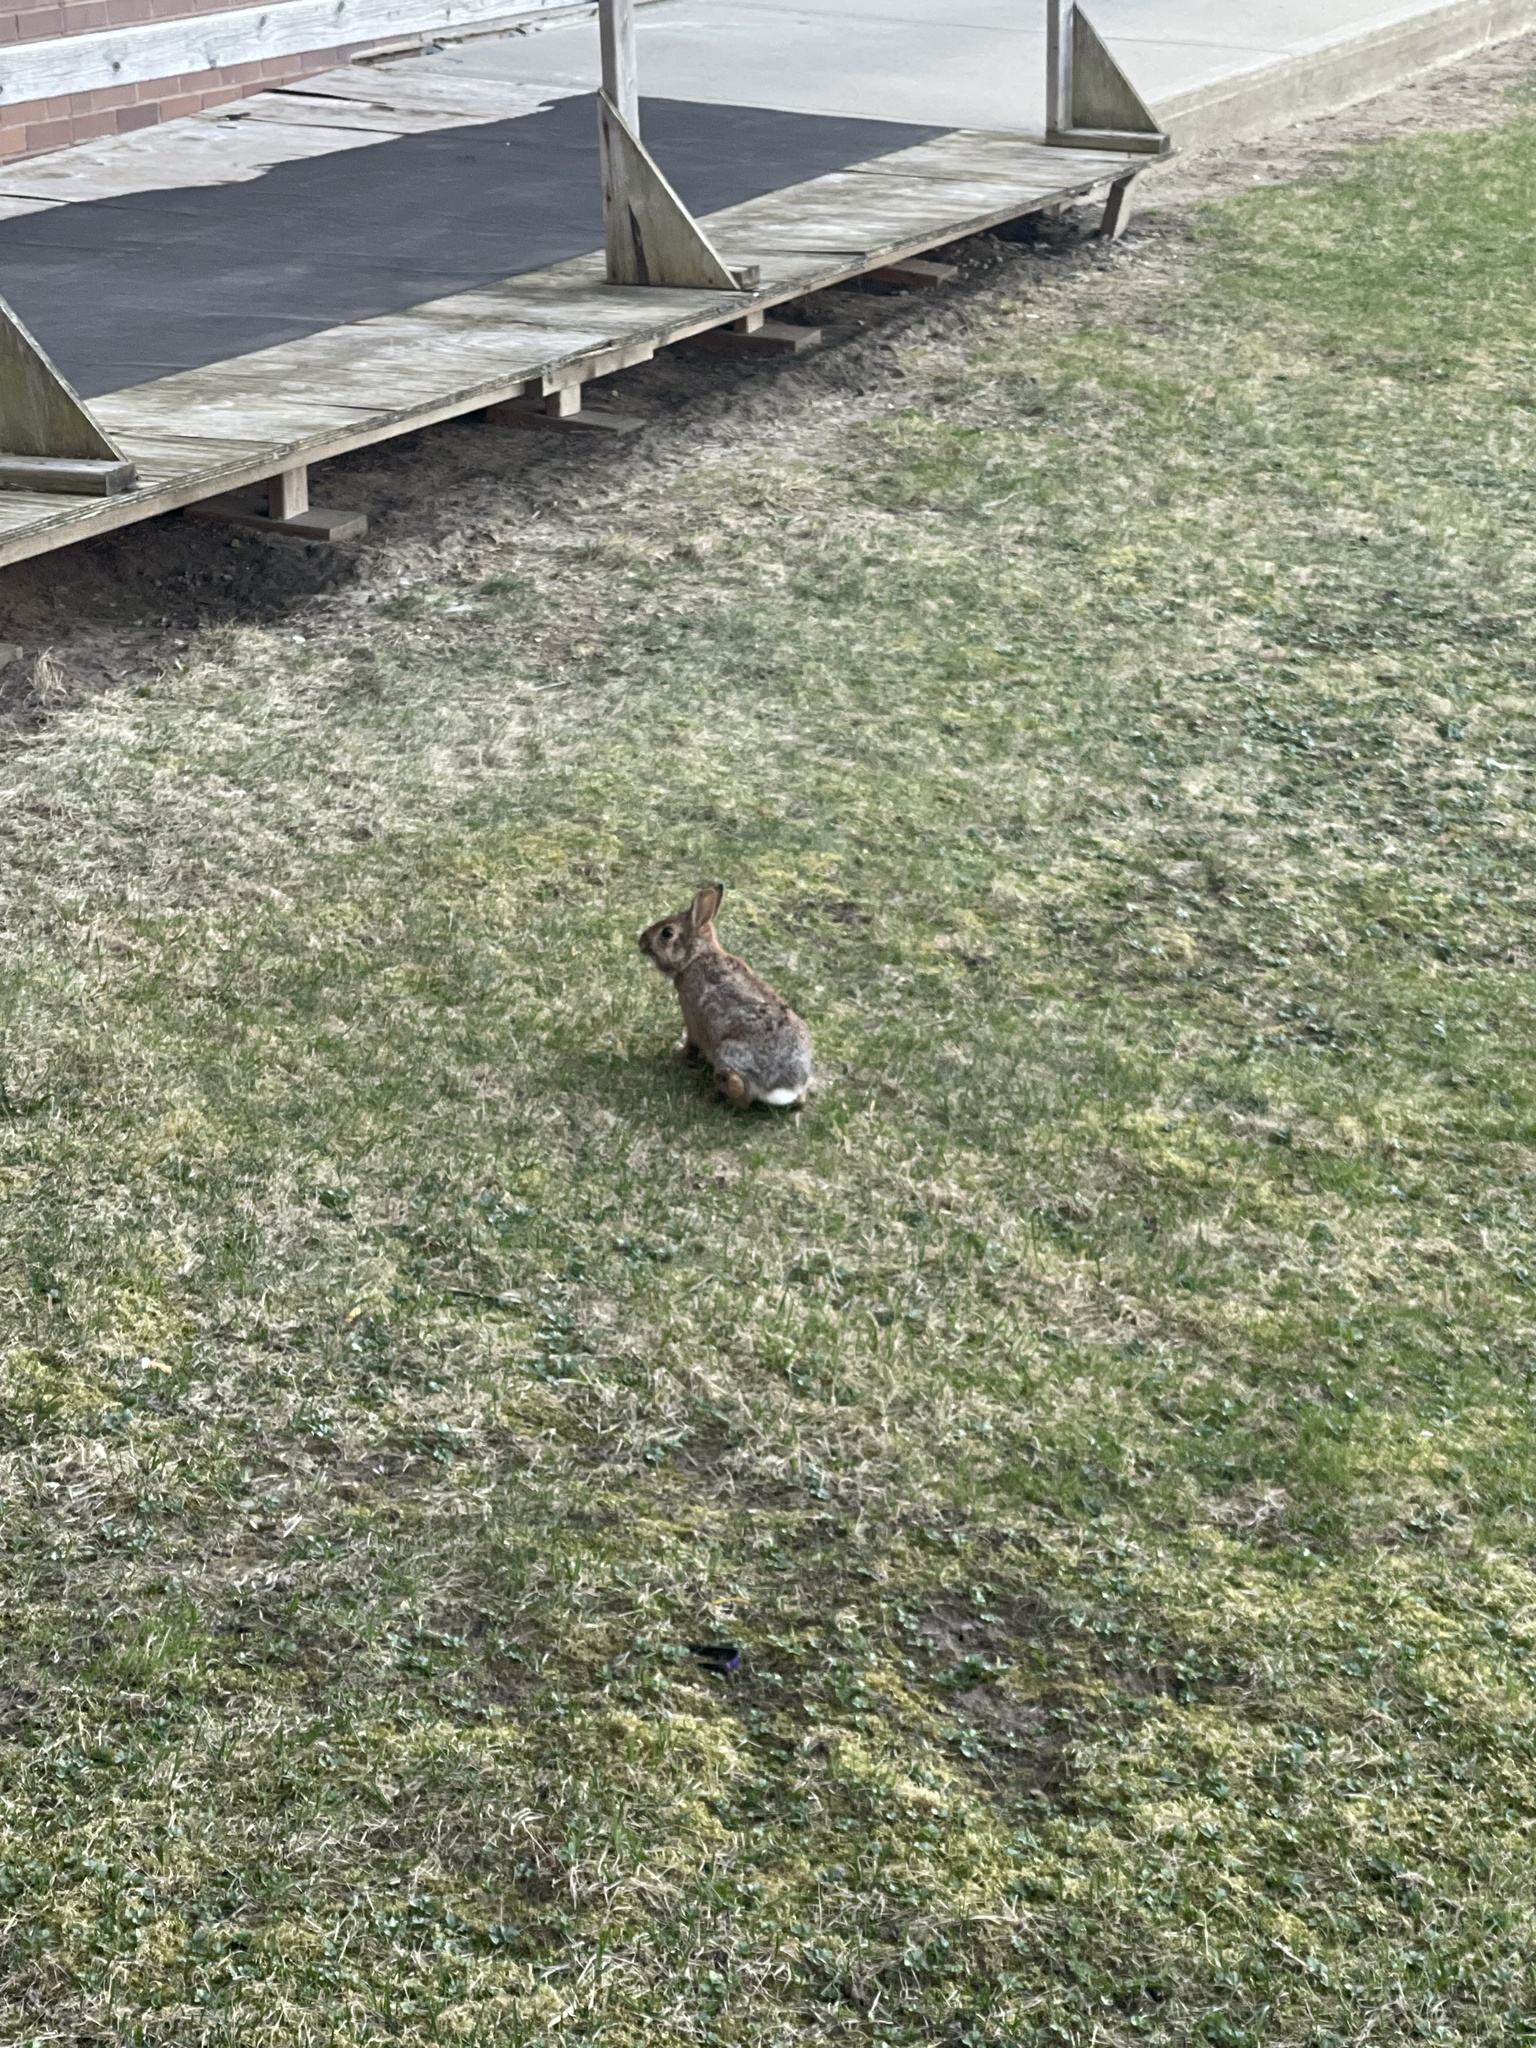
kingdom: Animalia
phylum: Chordata
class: Mammalia
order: Lagomorpha
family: Leporidae
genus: Sylvilagus
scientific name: Sylvilagus floridanus
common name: Eastern cottontail
